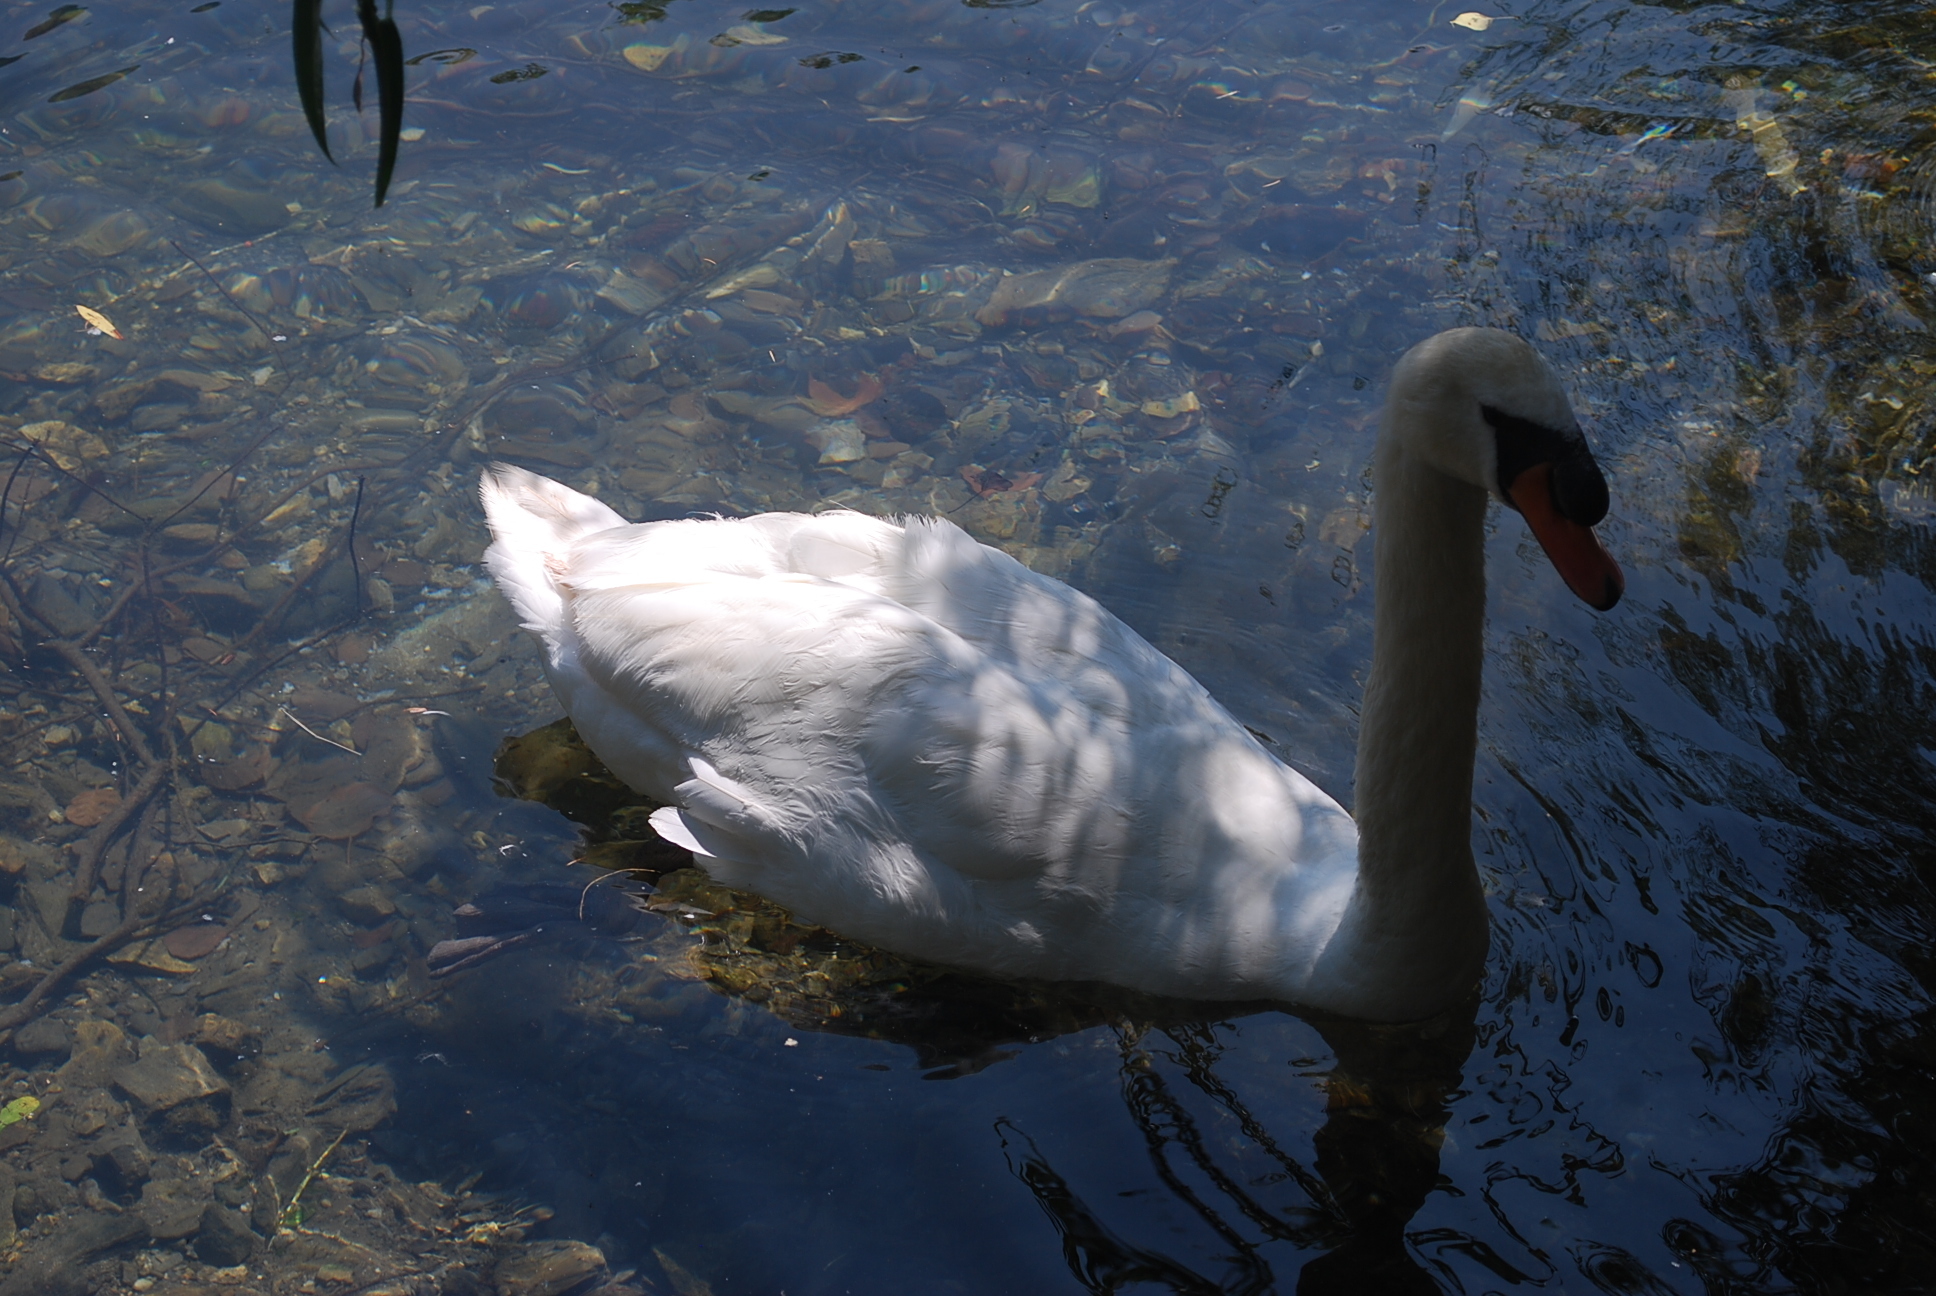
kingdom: Animalia
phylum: Chordata
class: Aves
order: Anseriformes
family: Anatidae
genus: Cygnus
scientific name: Cygnus olor
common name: Mute swan
